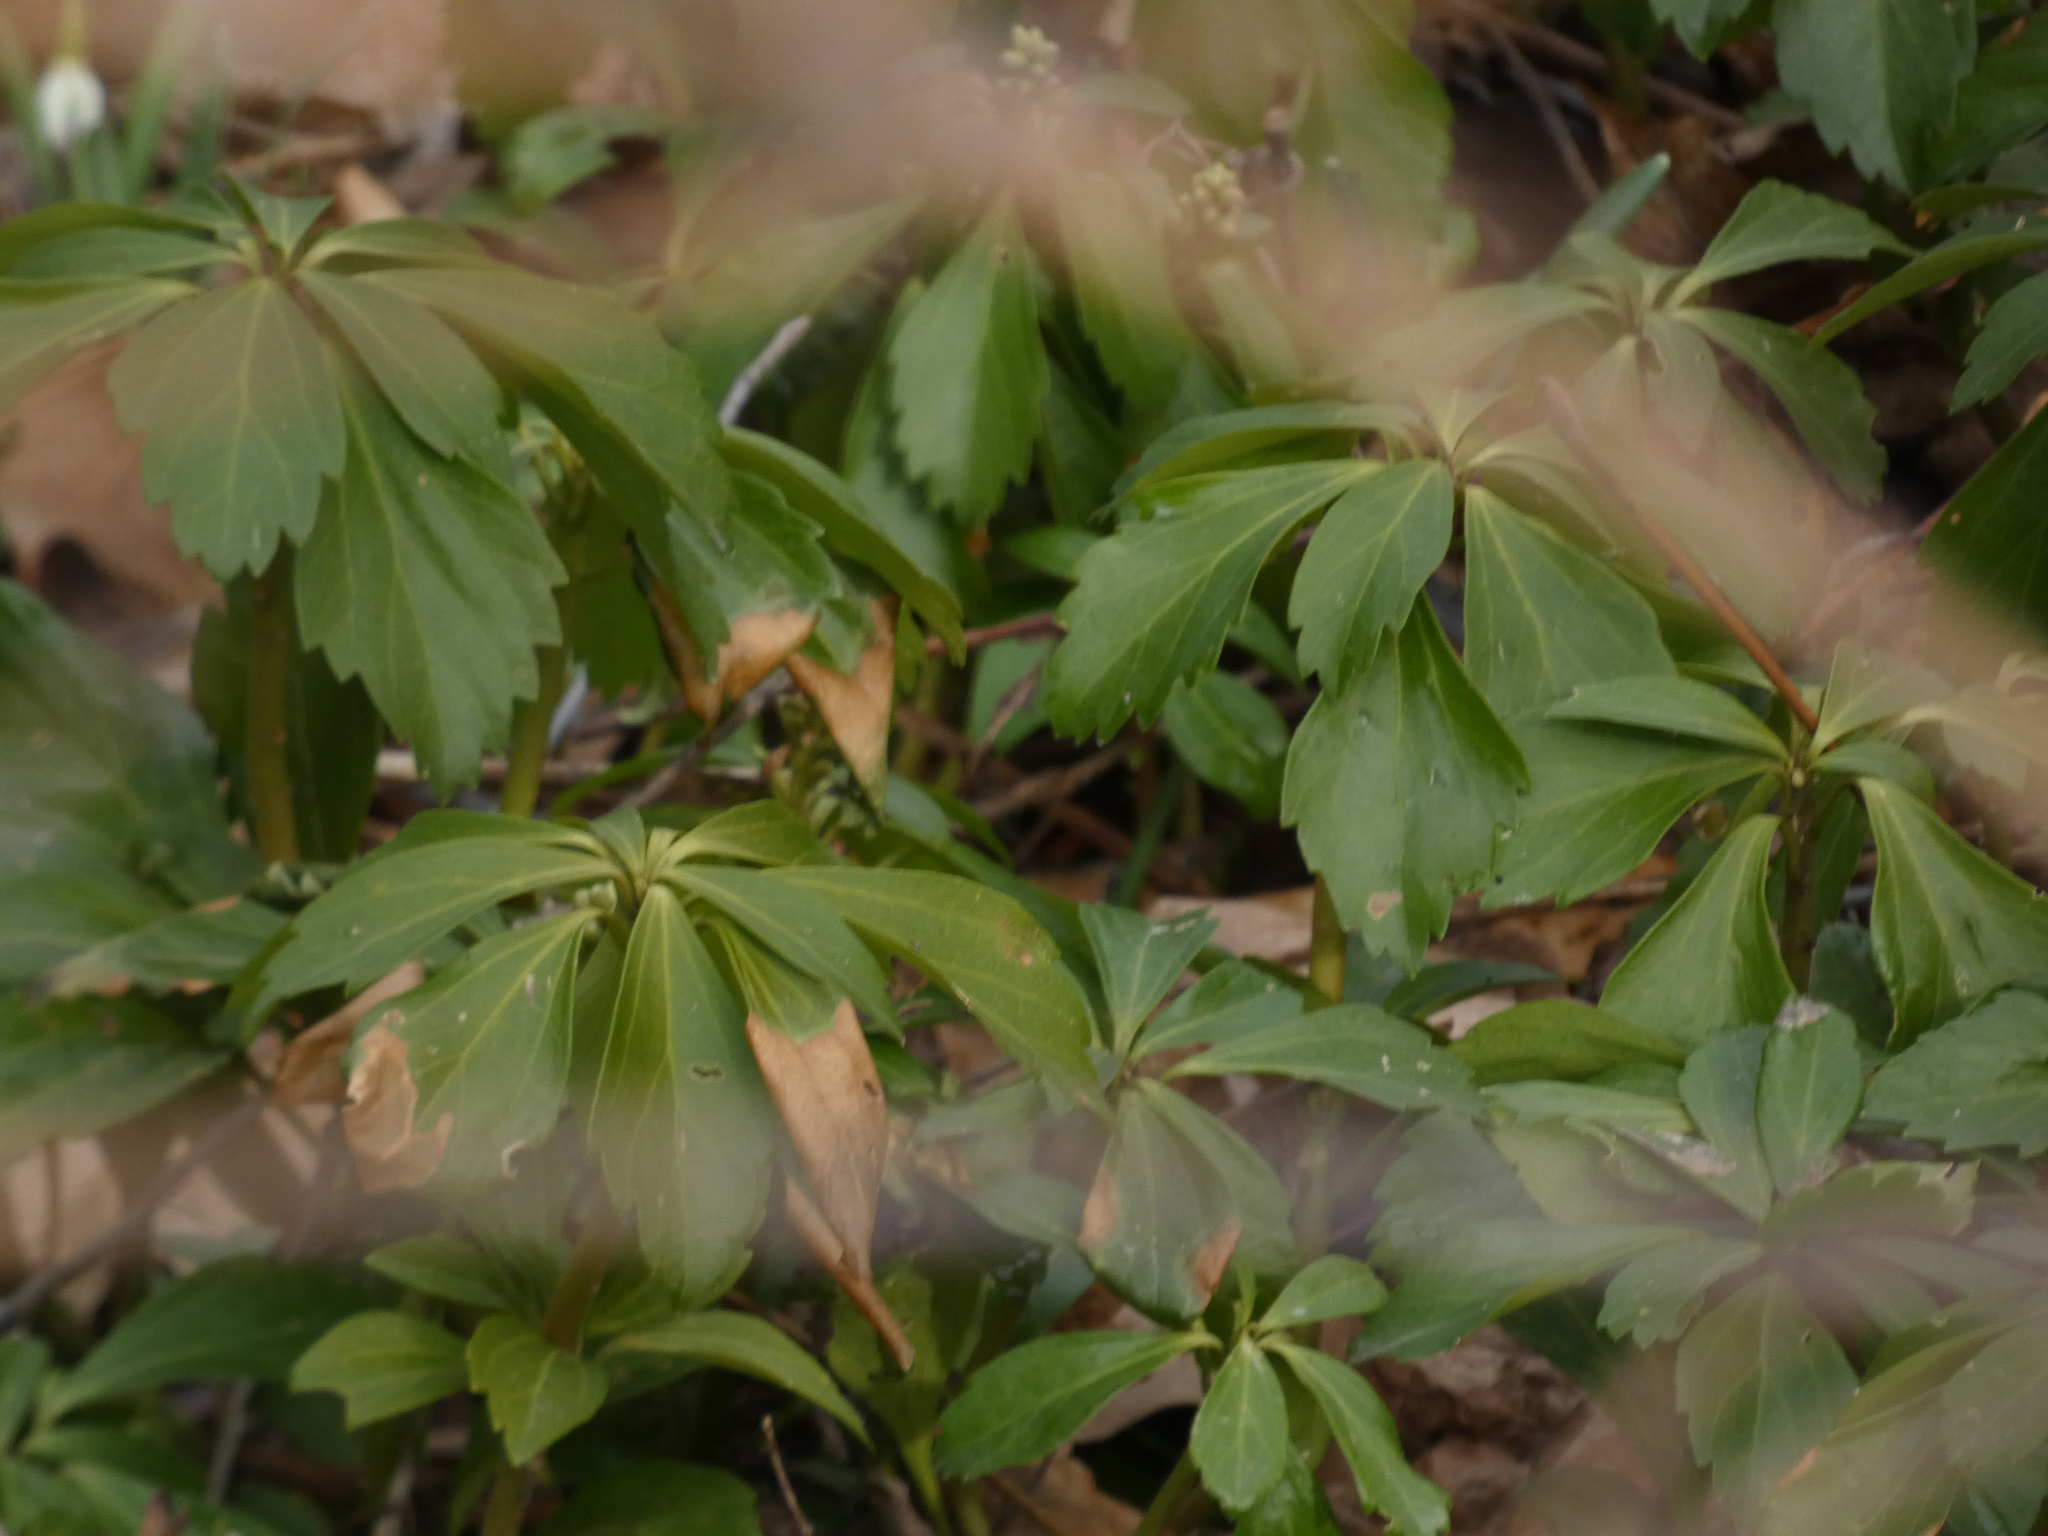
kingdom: Plantae
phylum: Tracheophyta
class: Magnoliopsida
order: Buxales
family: Buxaceae
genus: Pachysandra
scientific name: Pachysandra terminalis
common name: Japanese pachysandra
